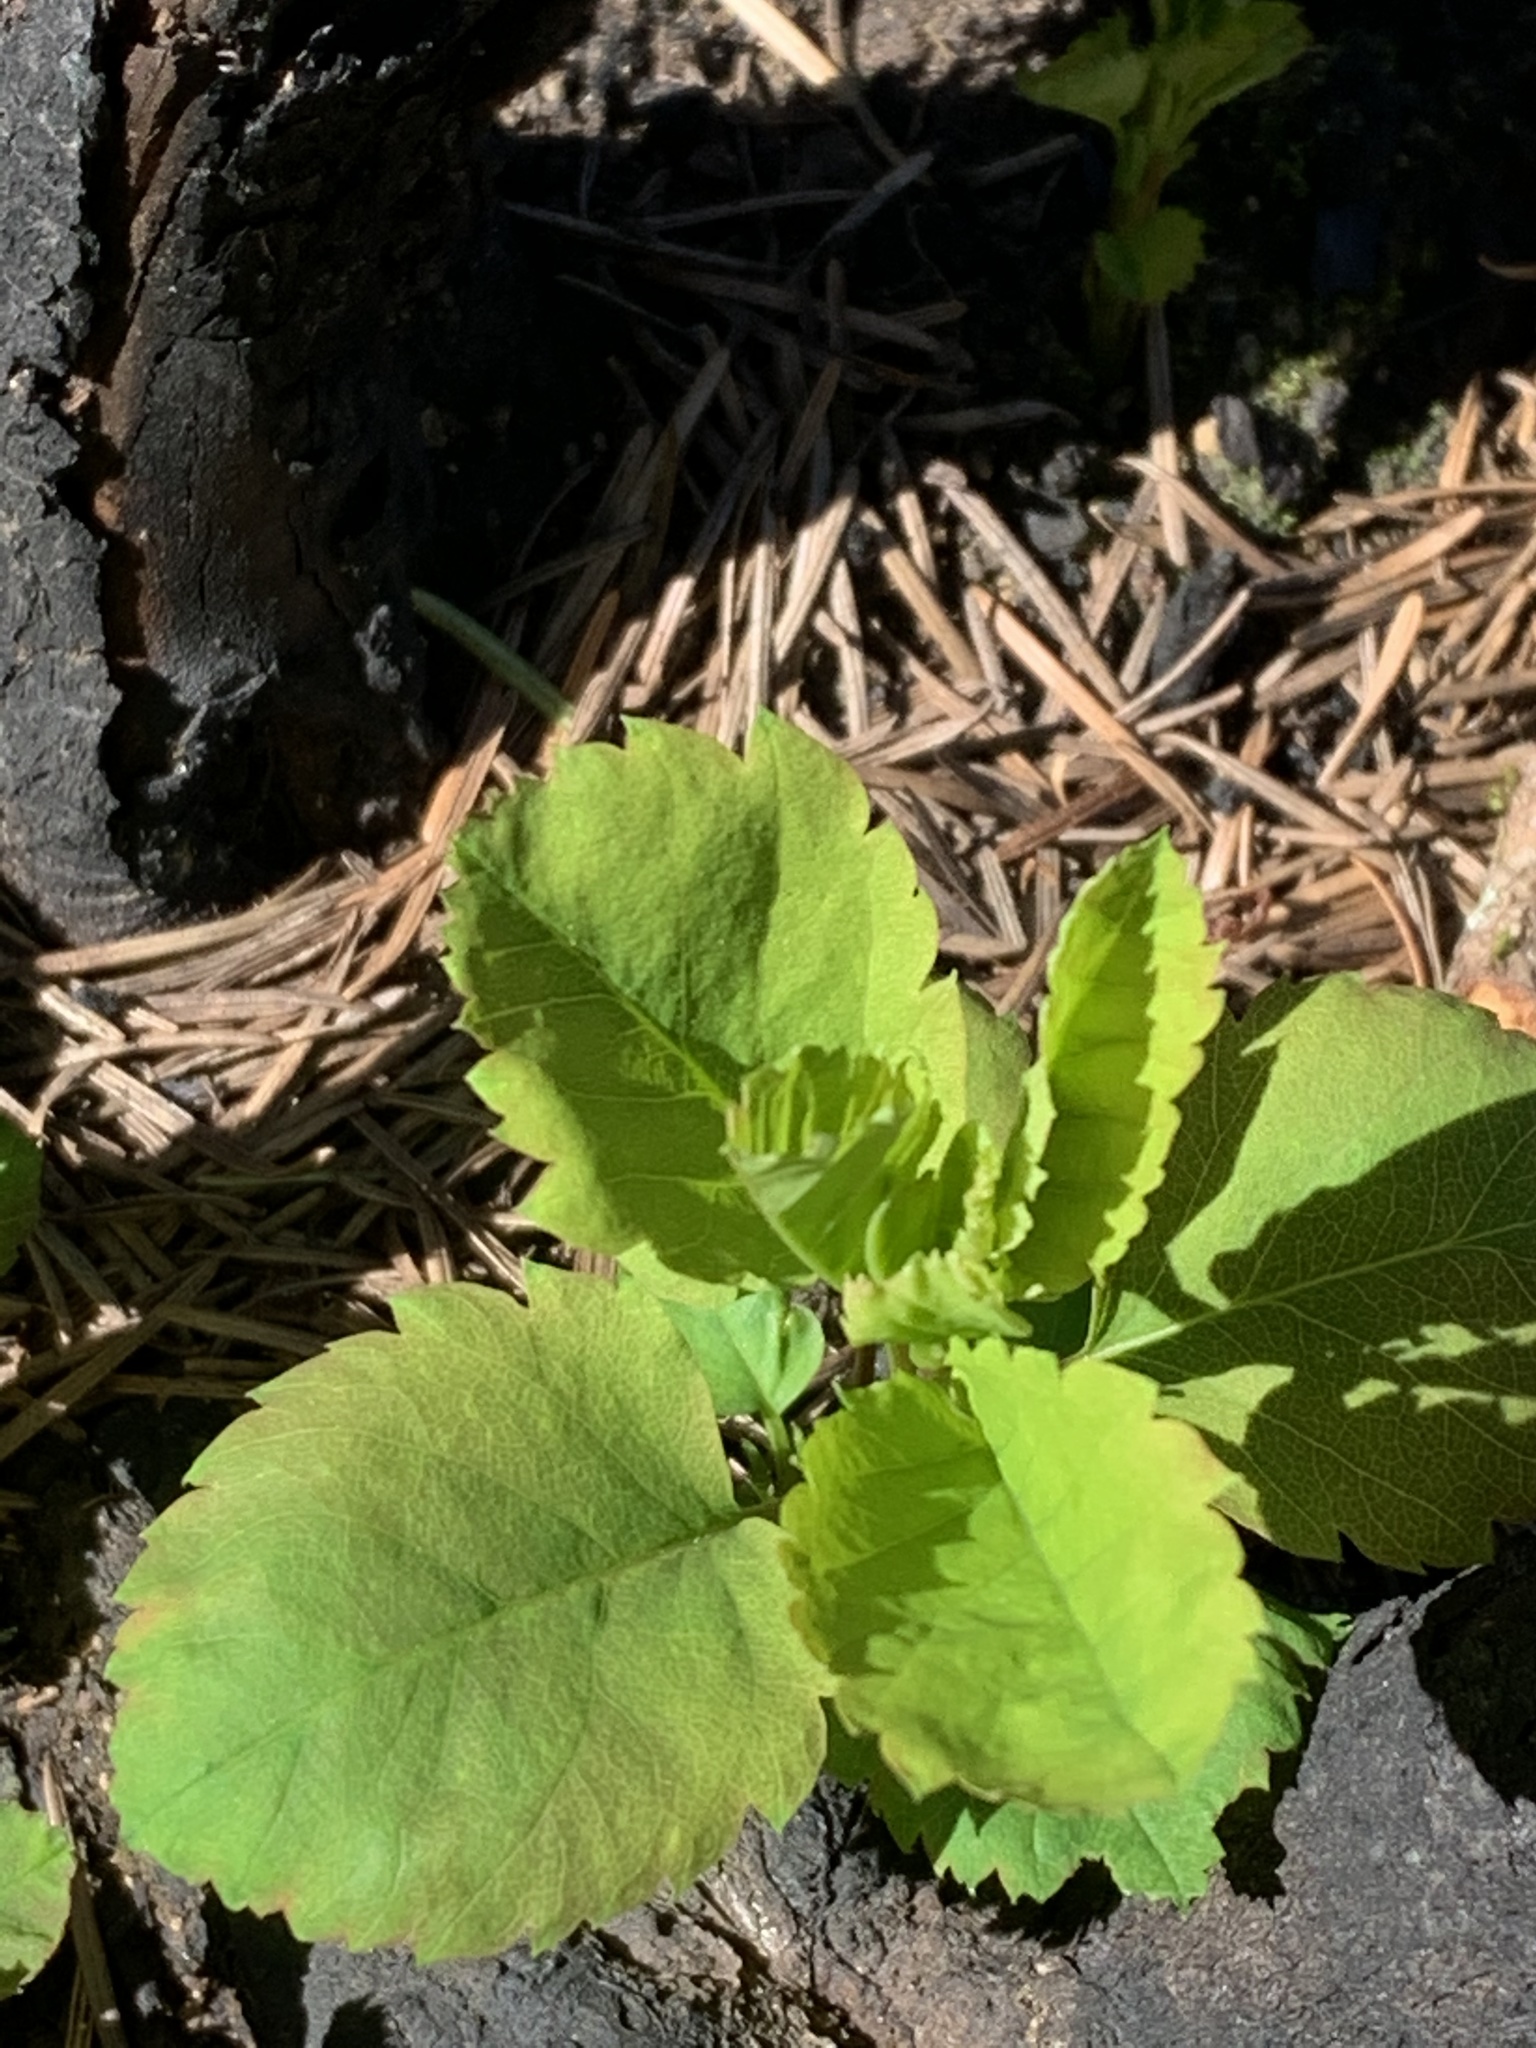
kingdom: Plantae
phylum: Tracheophyta
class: Magnoliopsida
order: Rosales
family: Rosaceae
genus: Amelanchier
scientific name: Amelanchier alnifolia
